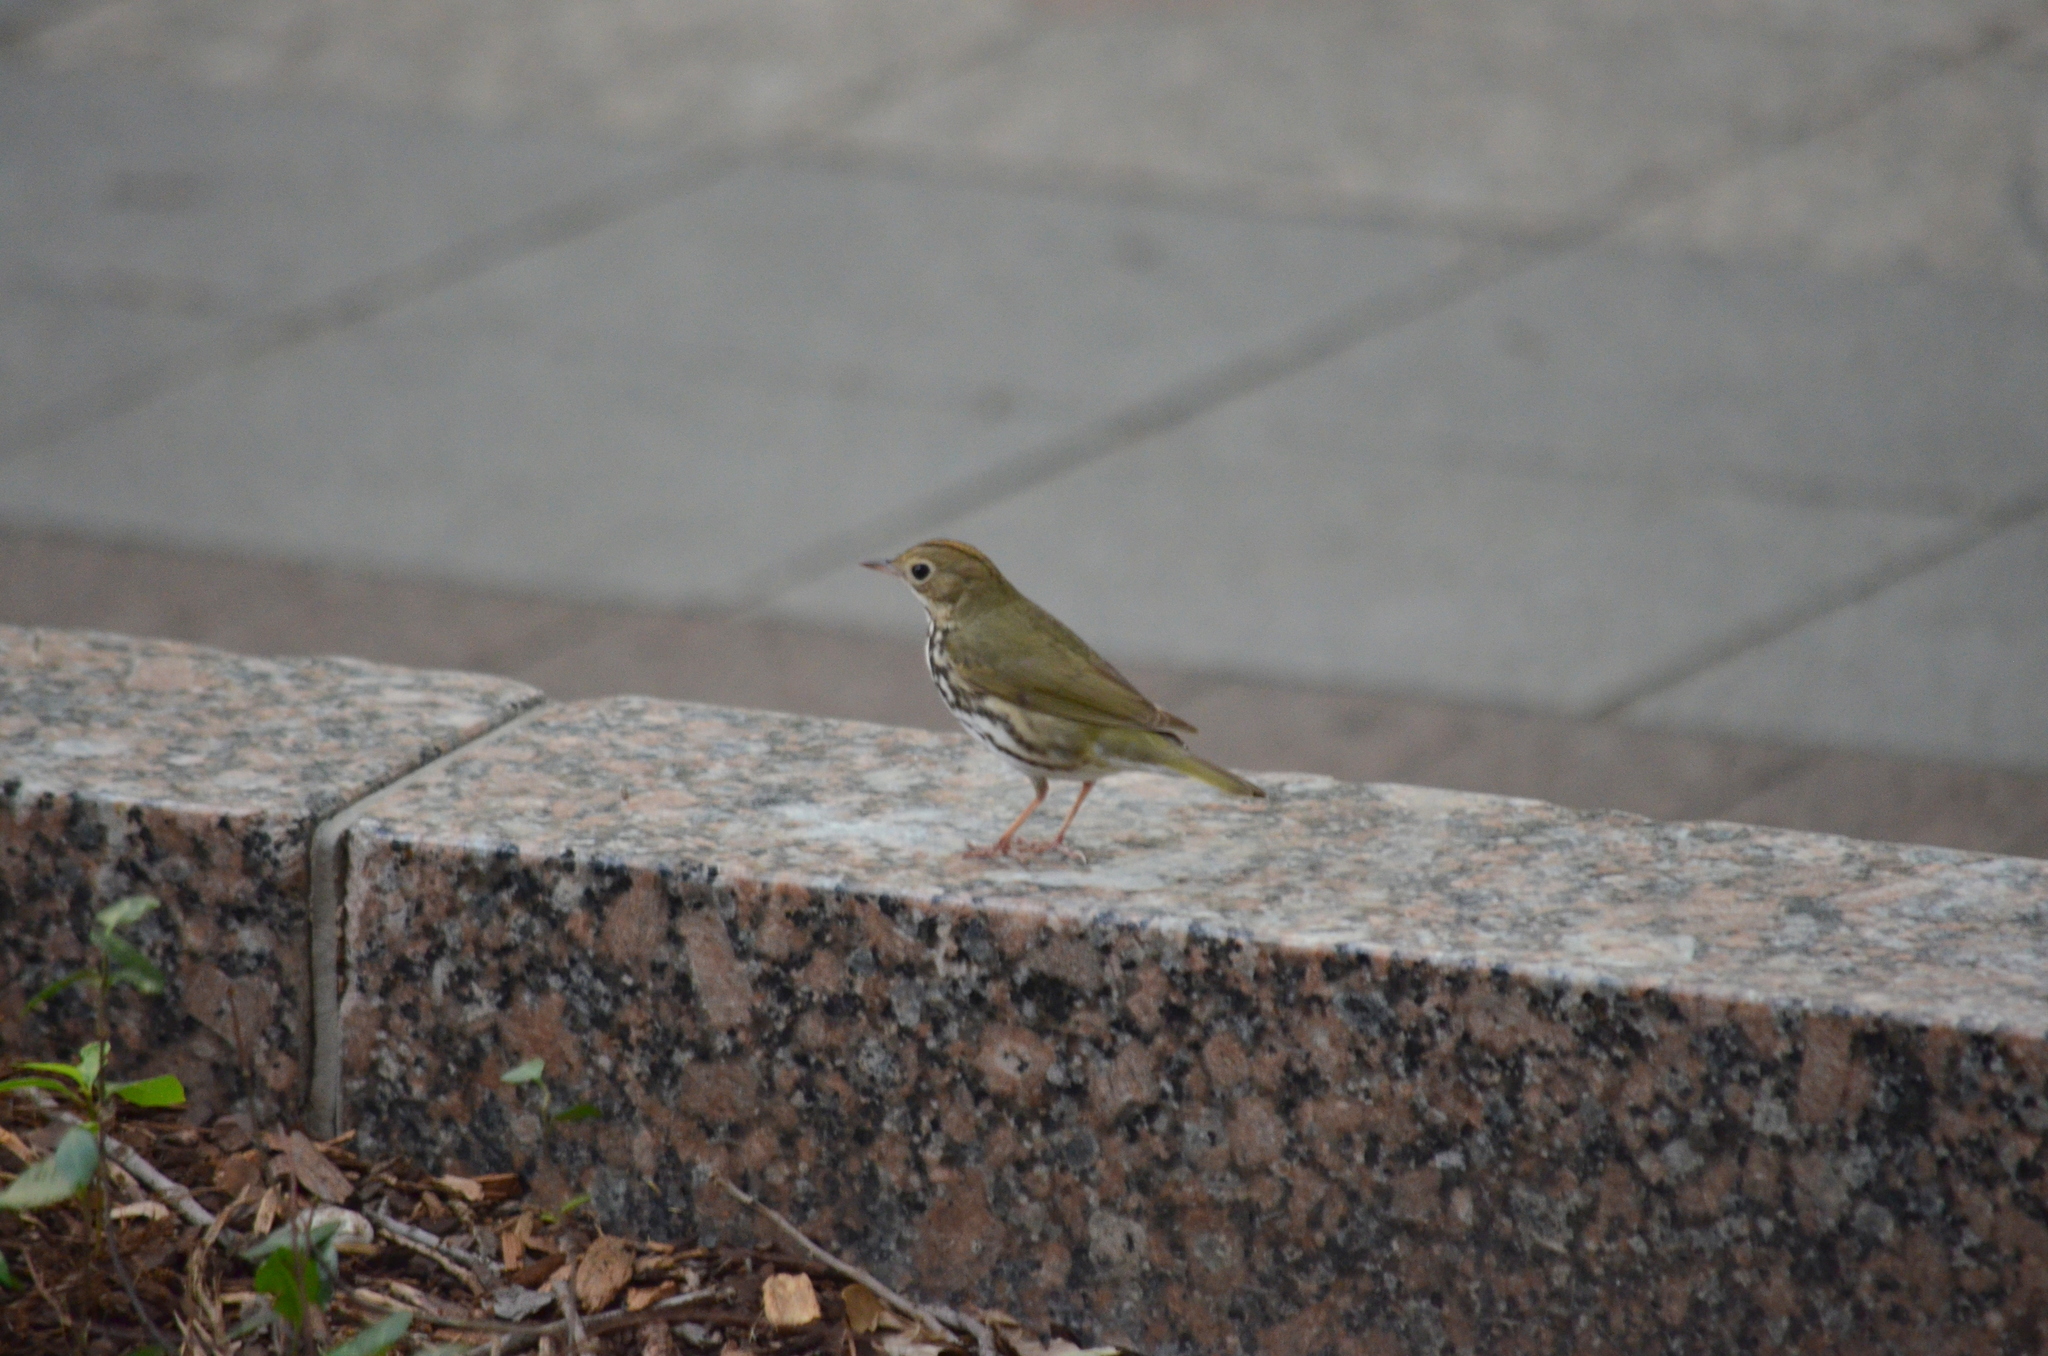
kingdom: Animalia
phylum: Chordata
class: Aves
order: Passeriformes
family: Parulidae
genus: Seiurus
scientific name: Seiurus aurocapilla
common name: Ovenbird
